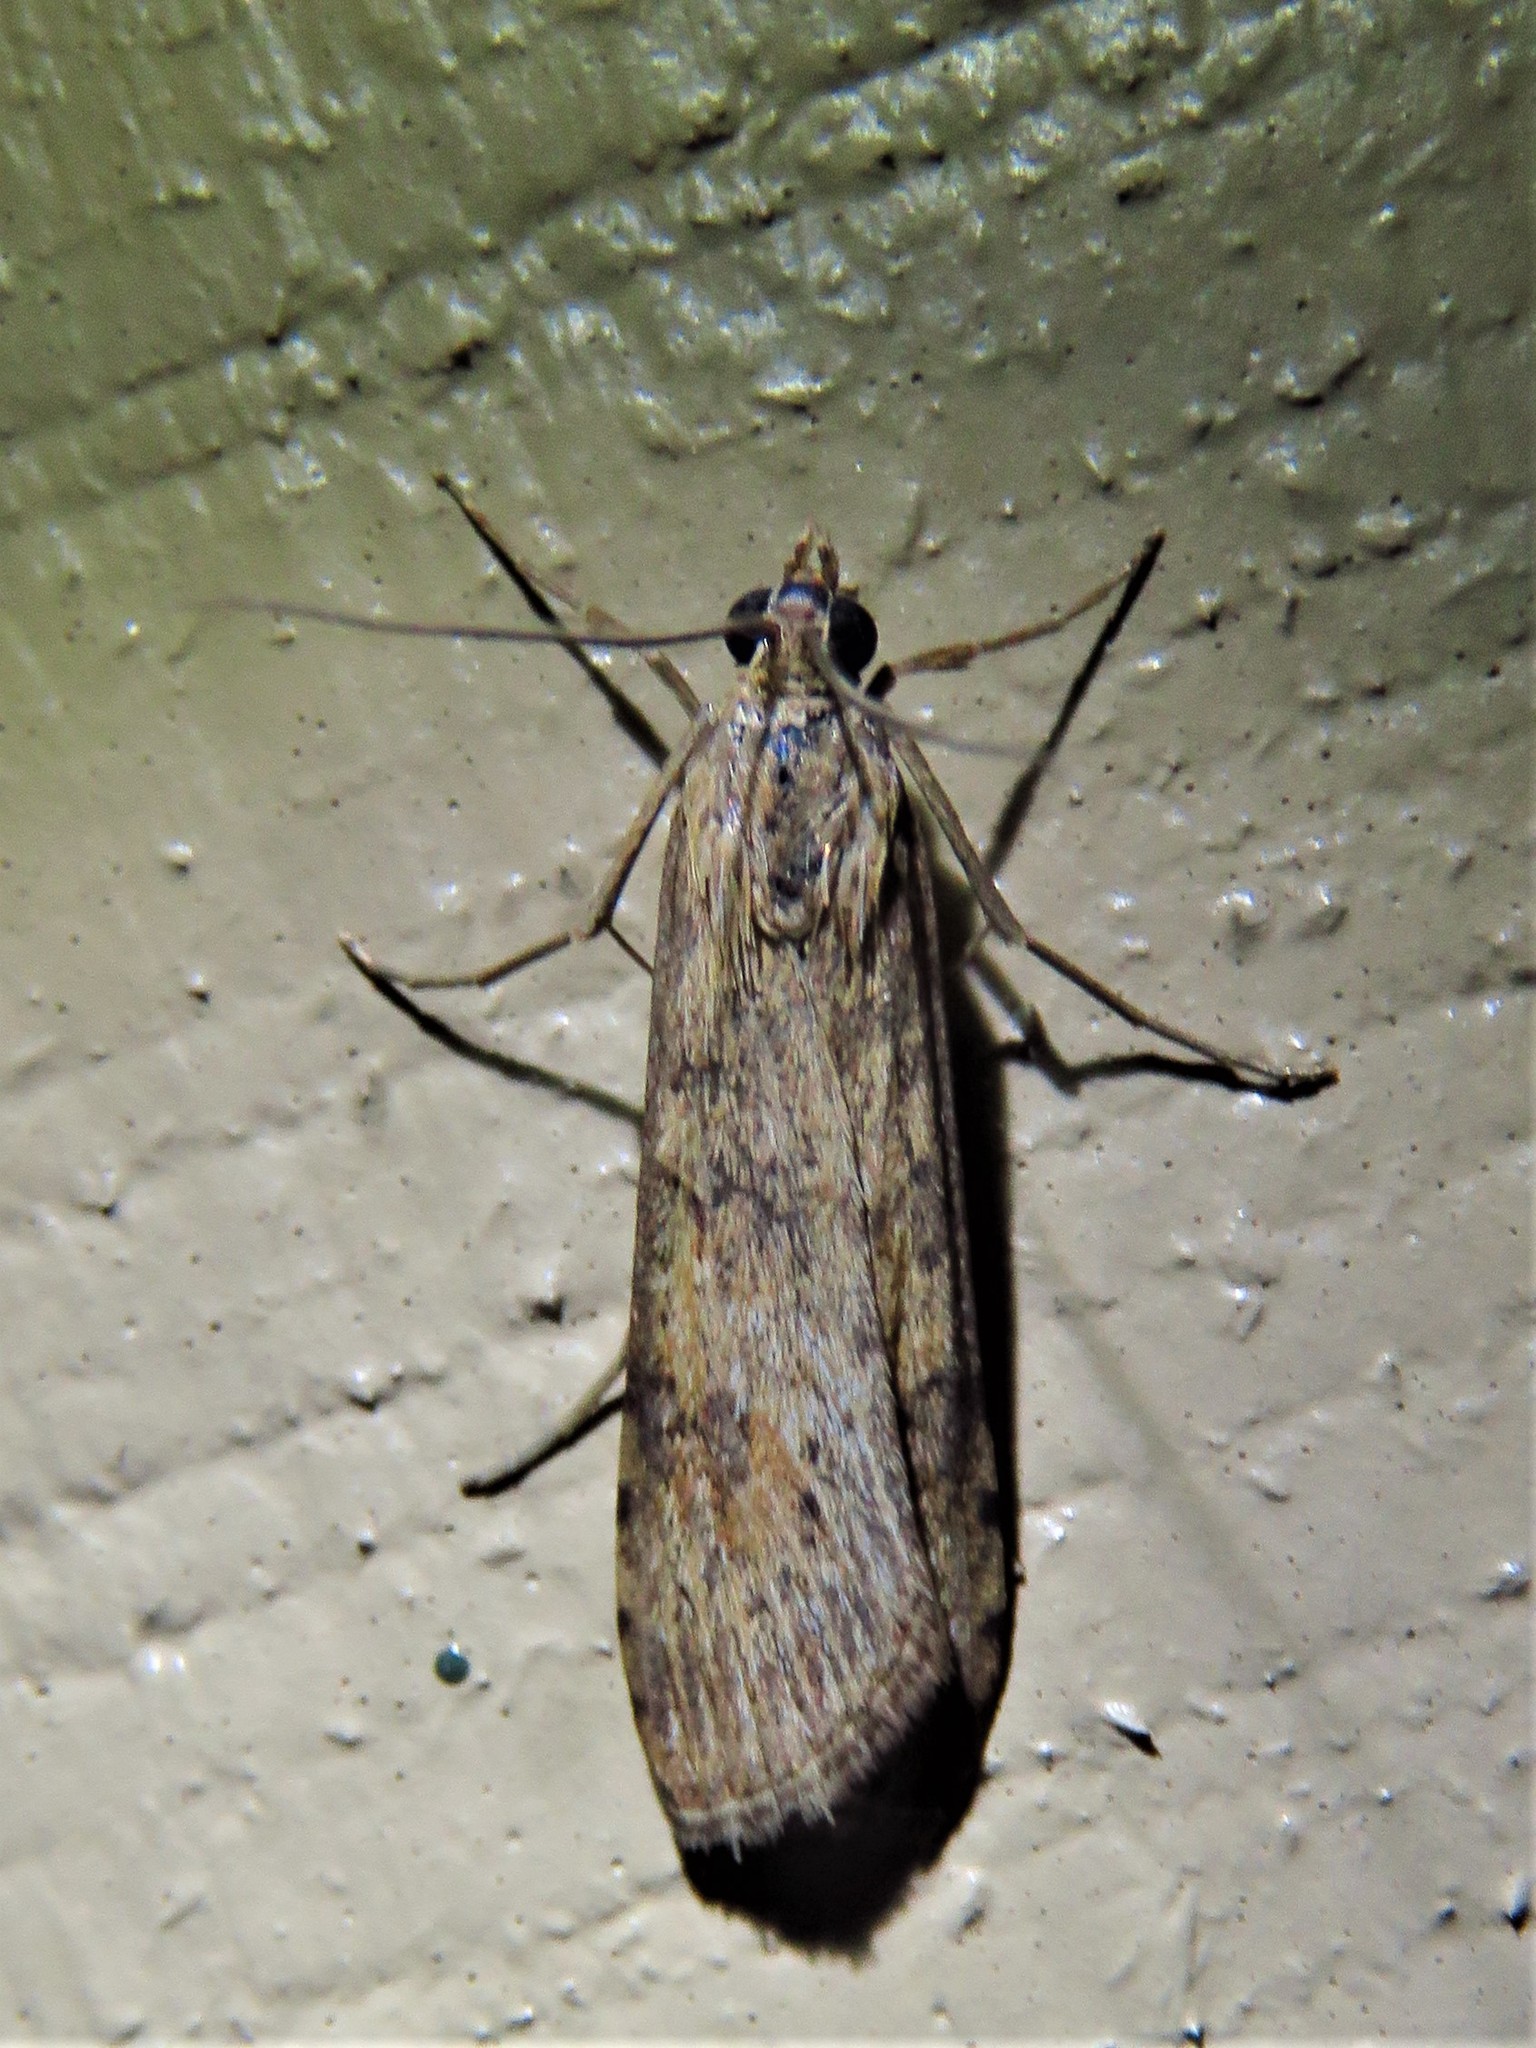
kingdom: Animalia
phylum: Arthropoda
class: Insecta
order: Lepidoptera
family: Crambidae
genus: Nomophila
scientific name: Nomophila nearctica
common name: American rush veneer
